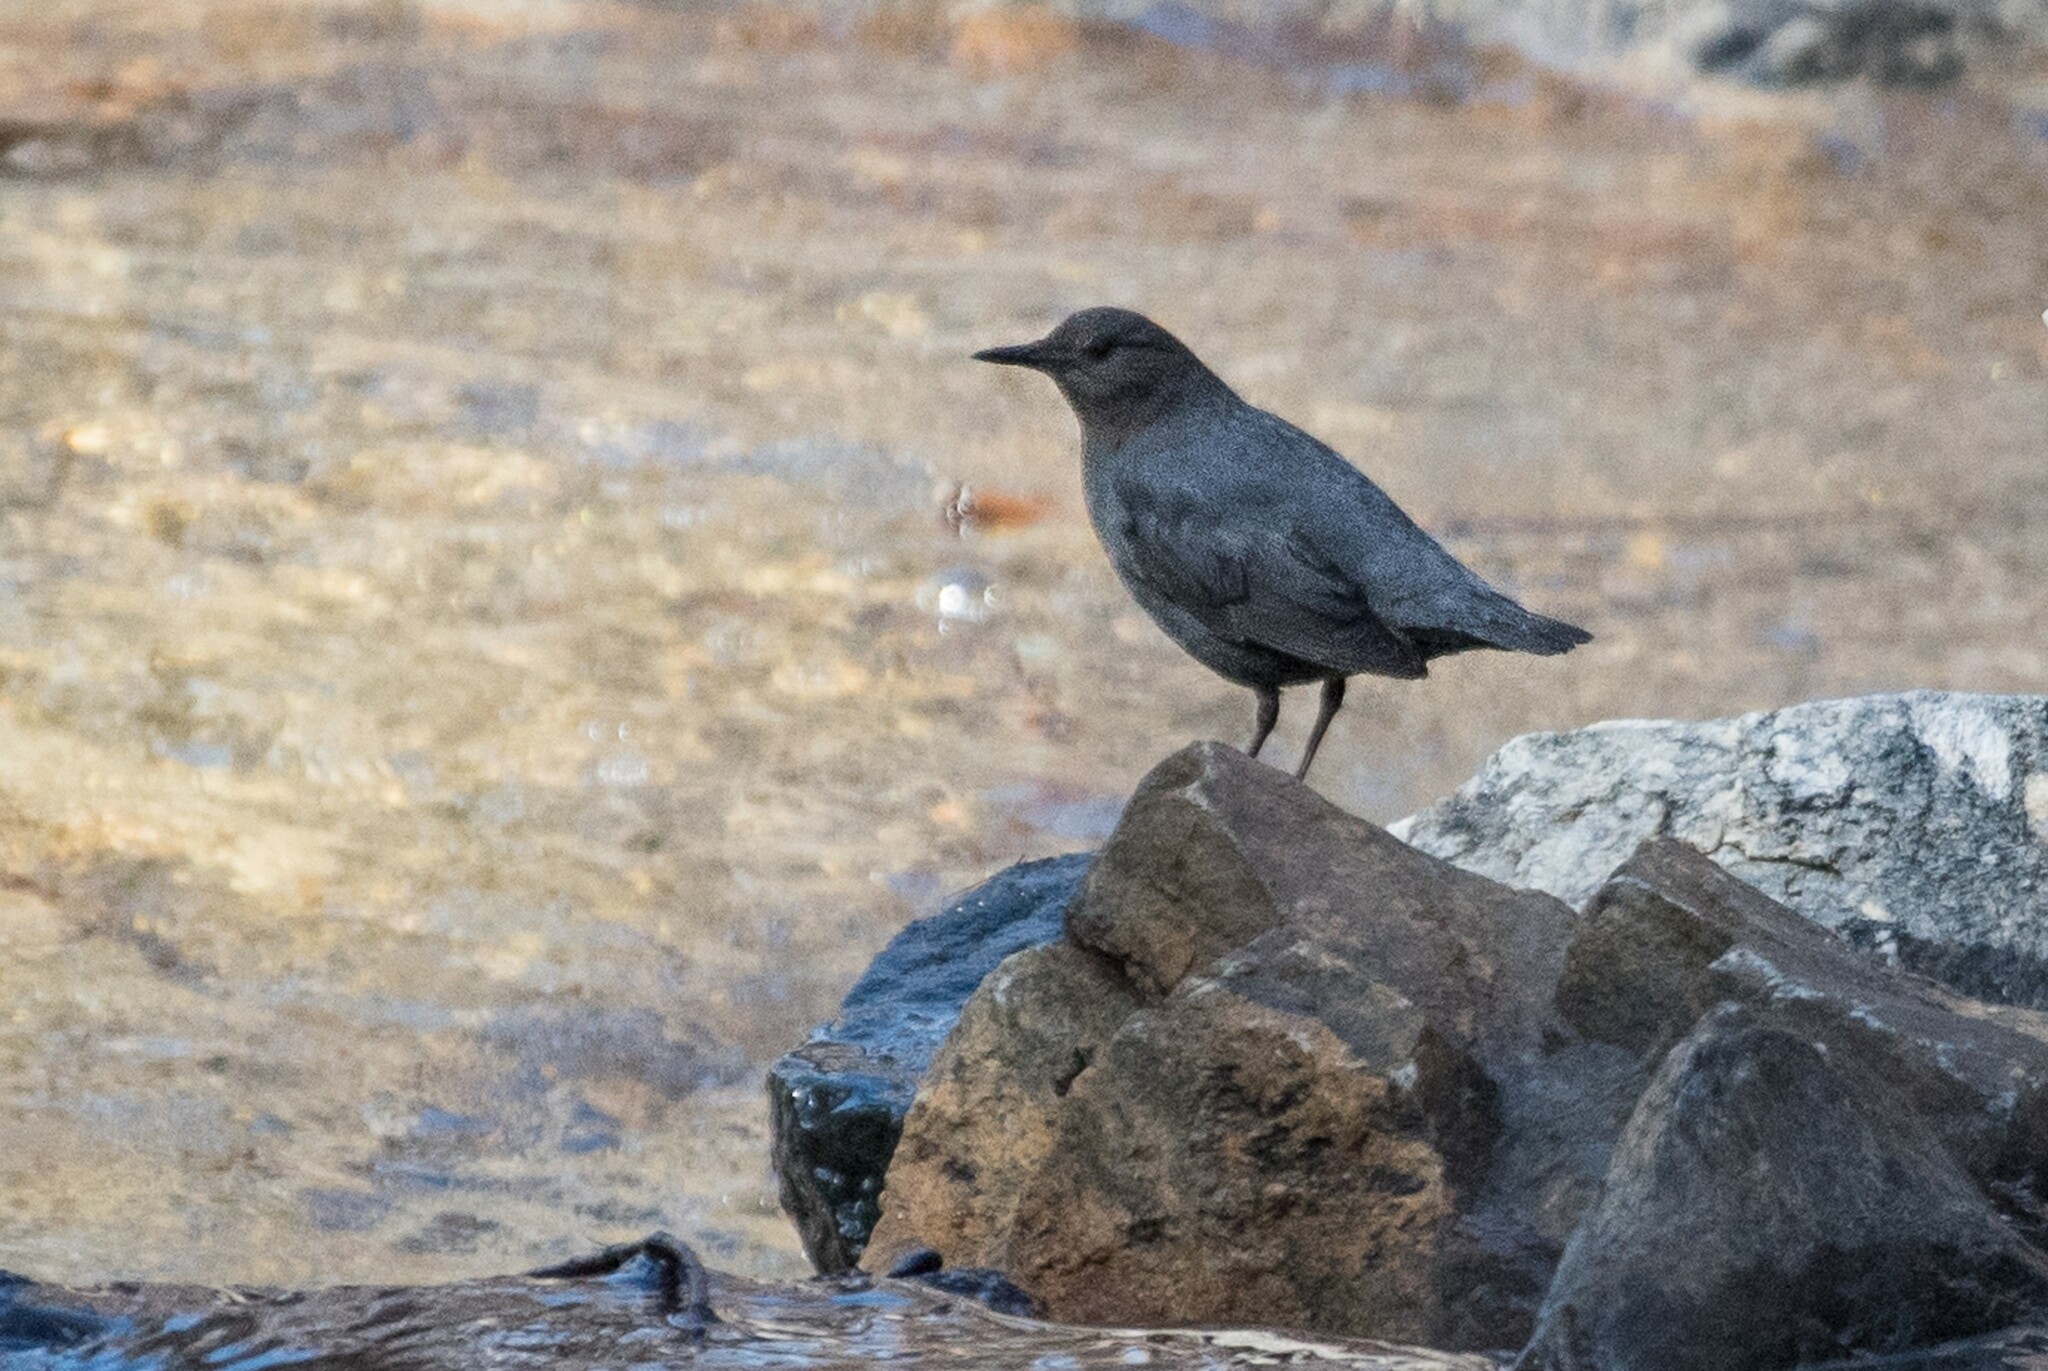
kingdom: Animalia
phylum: Chordata
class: Aves
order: Passeriformes
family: Cinclidae
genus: Cinclus
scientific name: Cinclus mexicanus
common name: American dipper
